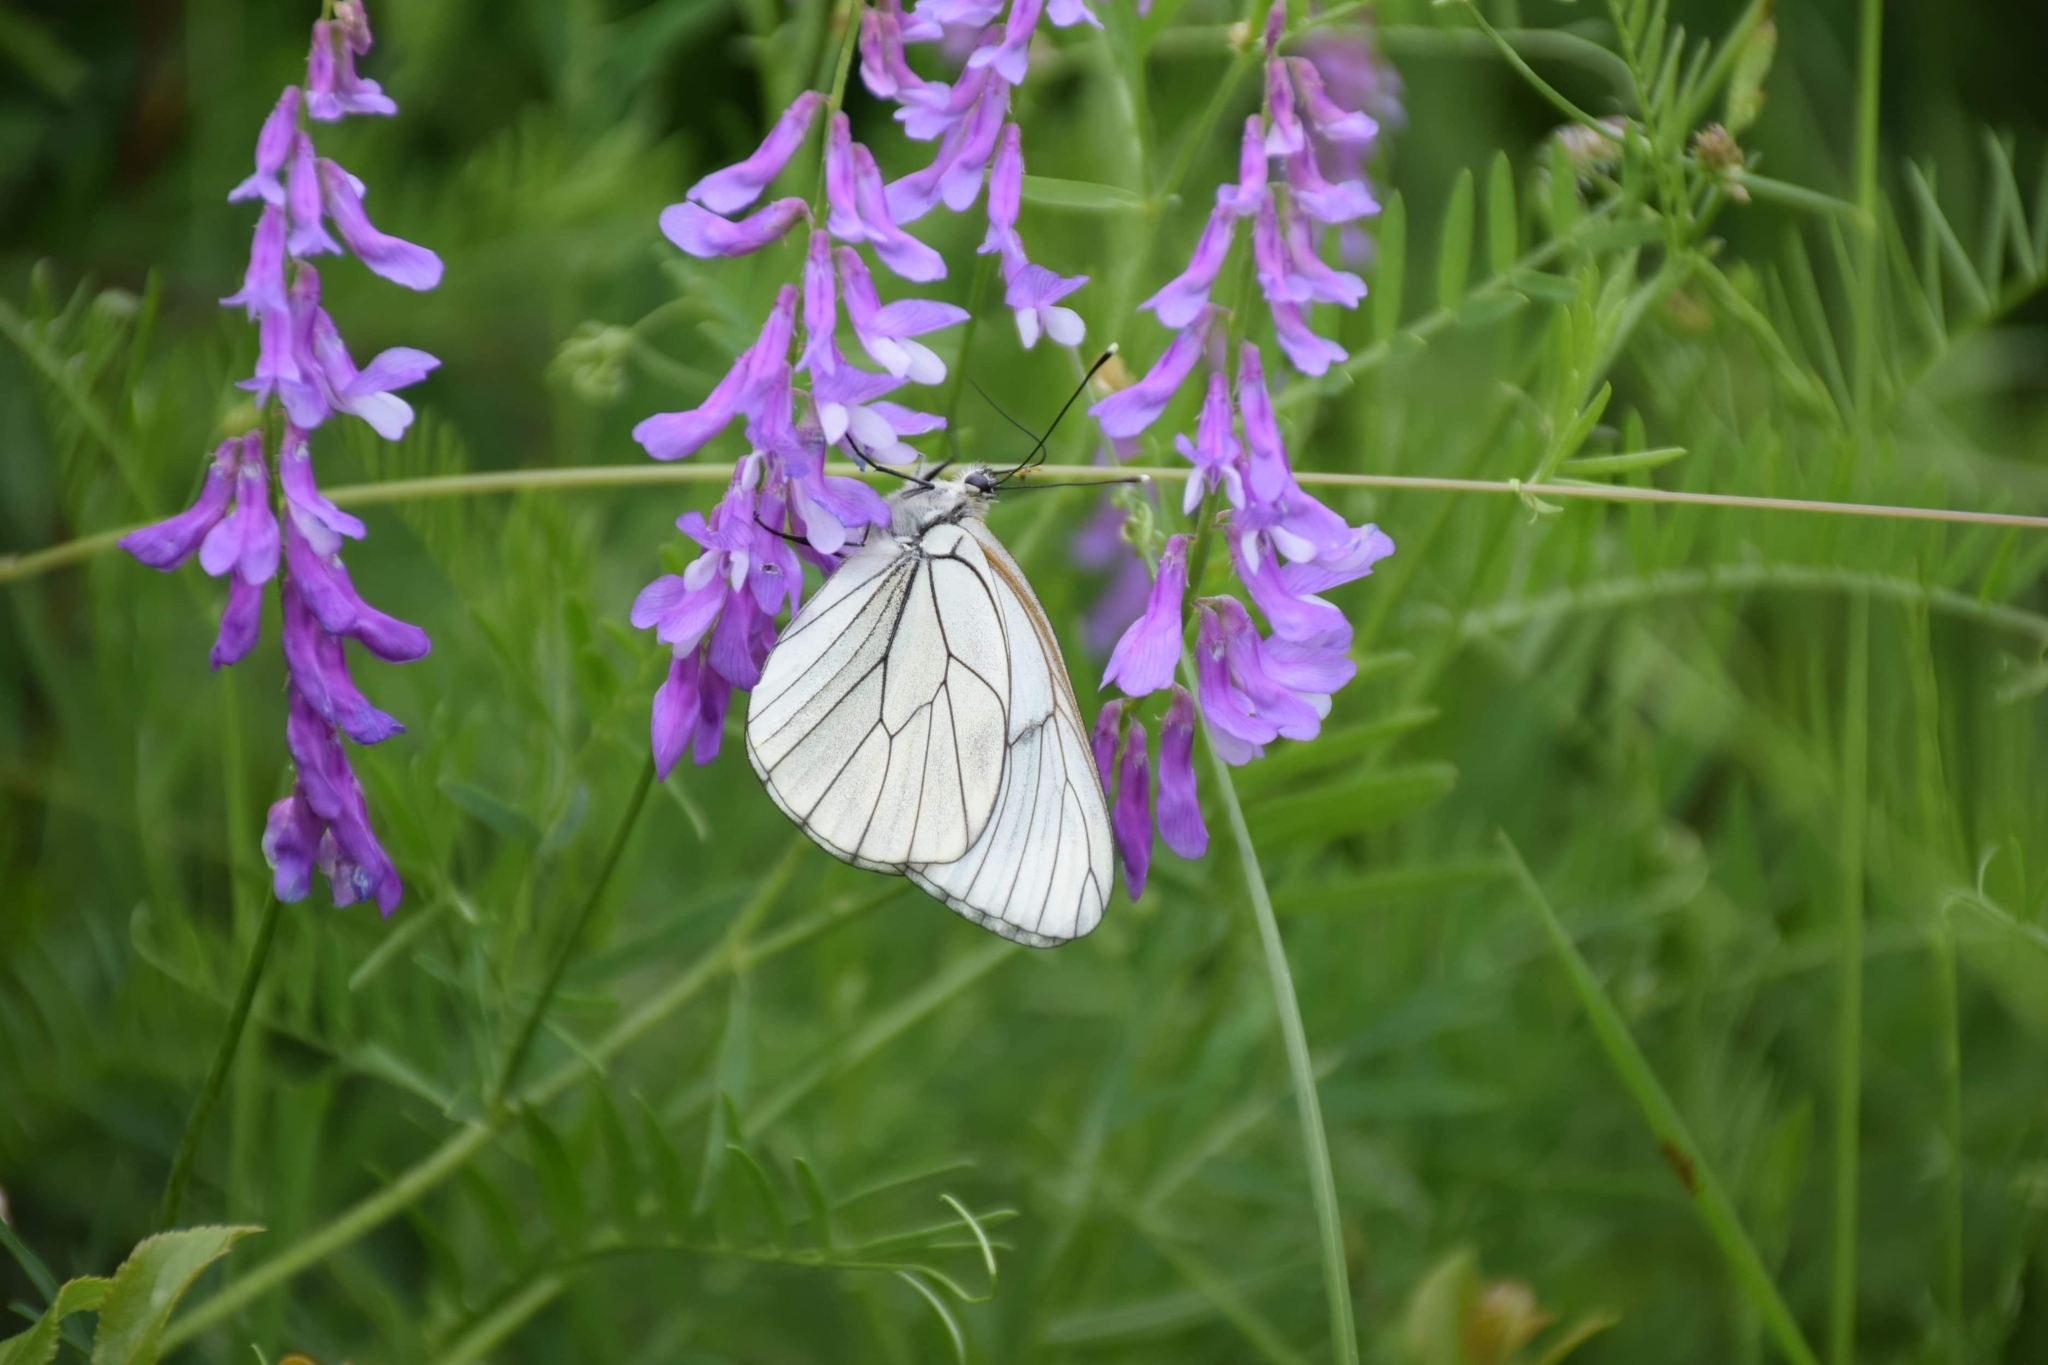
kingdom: Animalia
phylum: Arthropoda
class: Insecta
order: Lepidoptera
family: Pieridae
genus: Aporia
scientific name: Aporia crataegi
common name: Black-veined white
